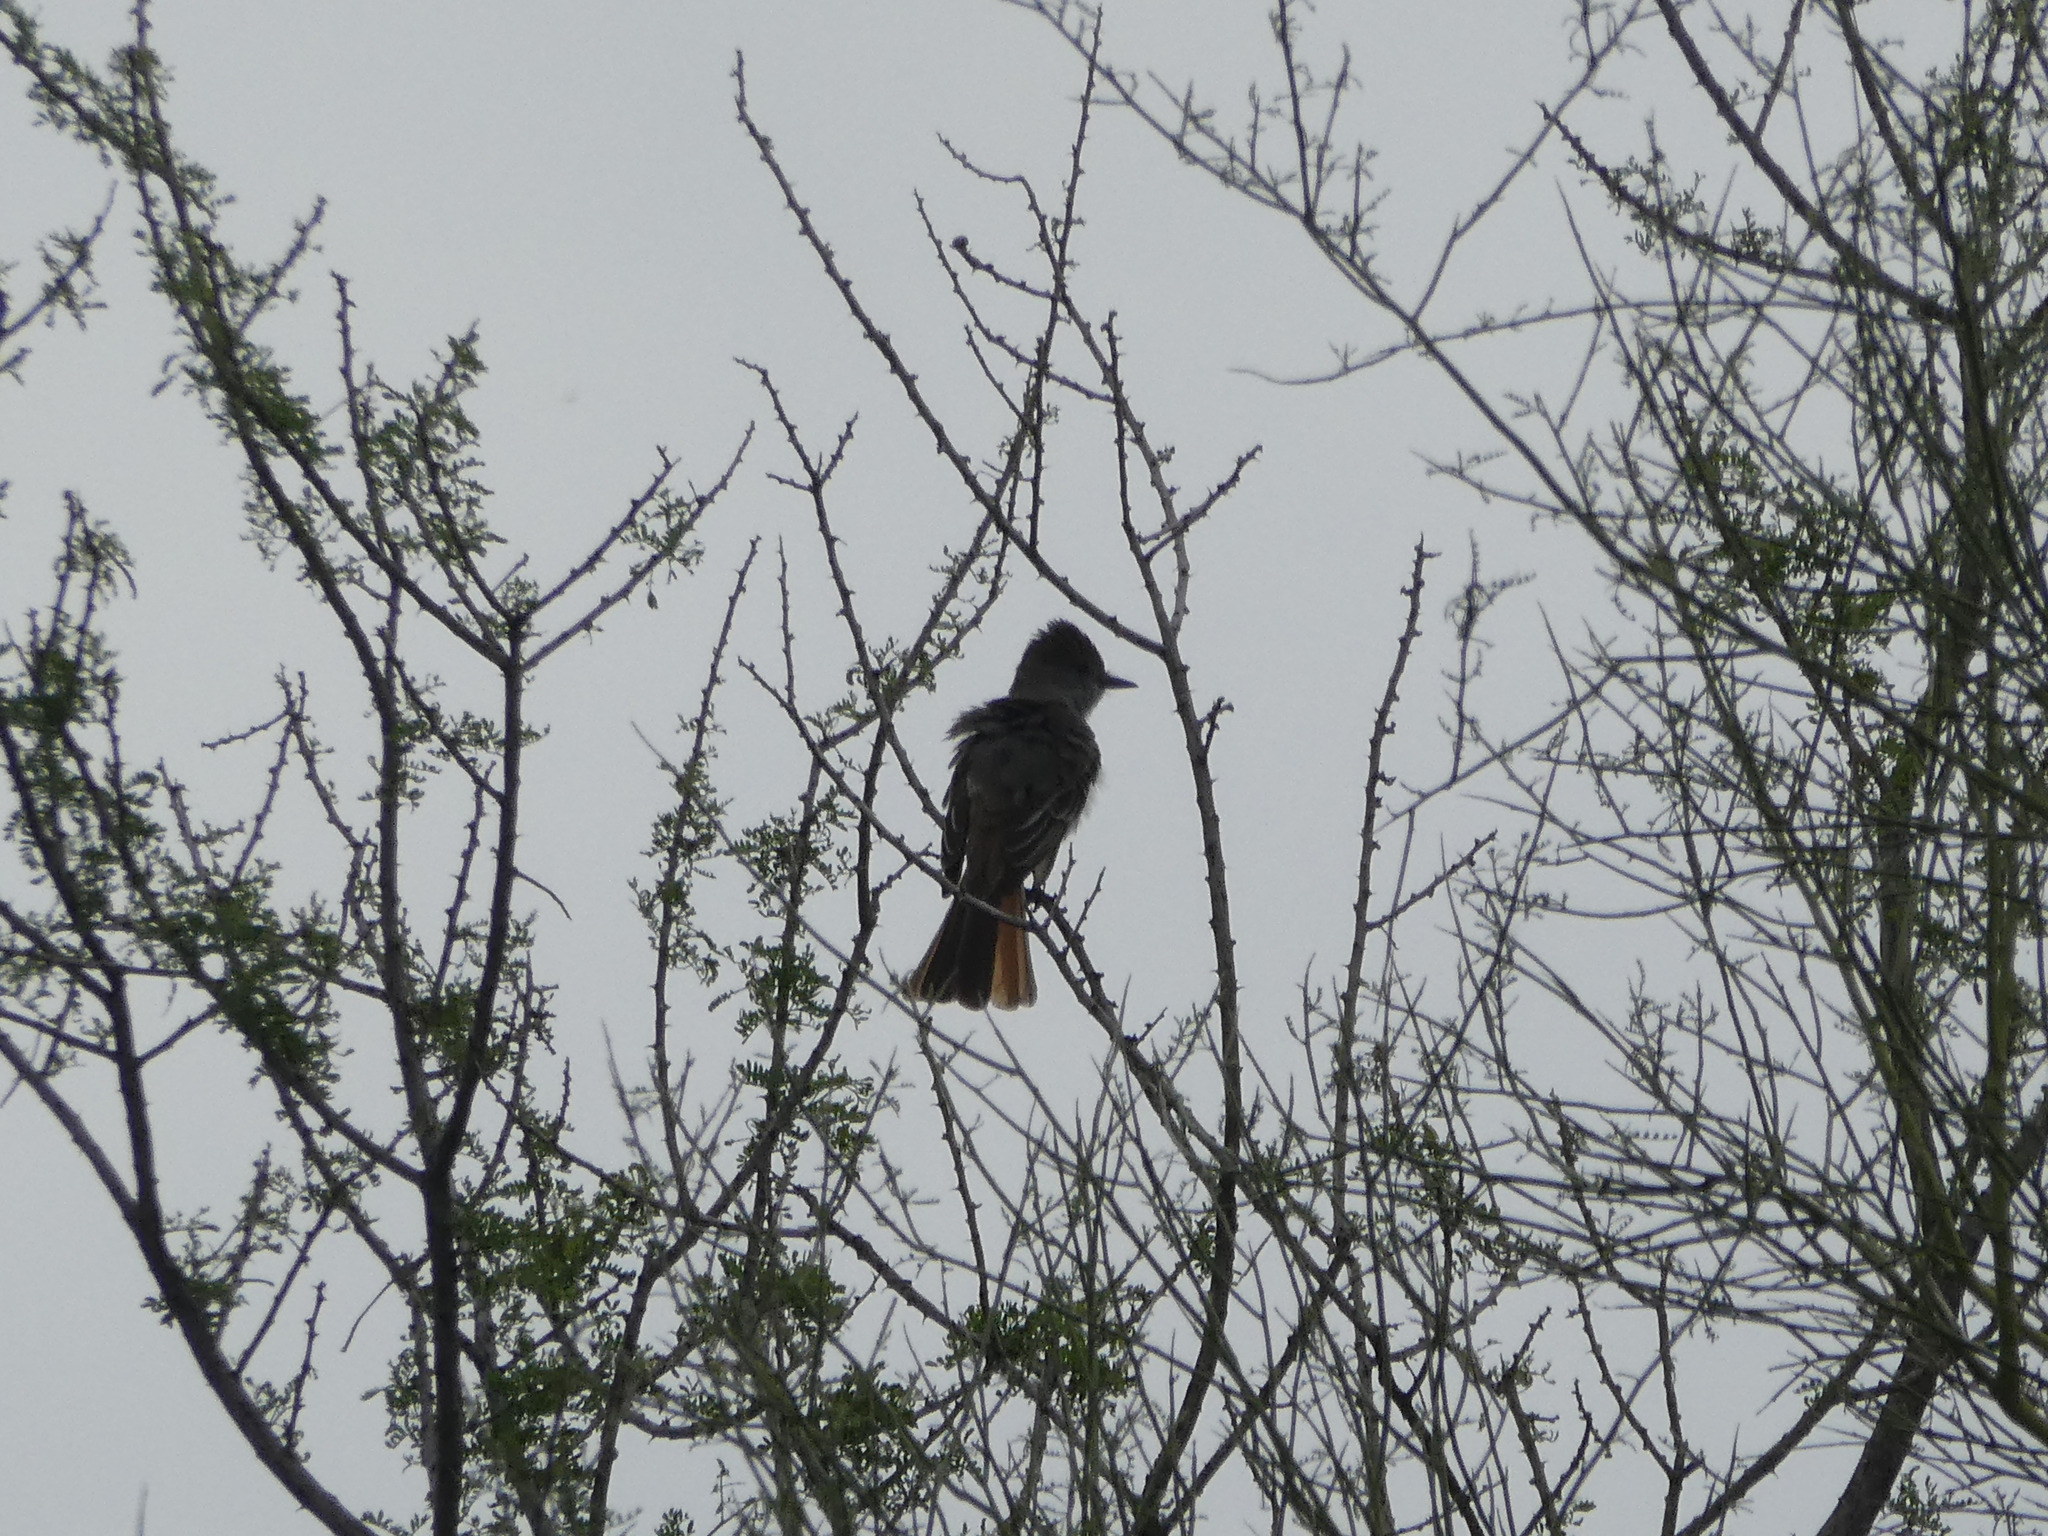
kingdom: Animalia
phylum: Chordata
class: Aves
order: Passeriformes
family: Tyrannidae
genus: Myiarchus
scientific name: Myiarchus cinerascens
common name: Ash-throated flycatcher
